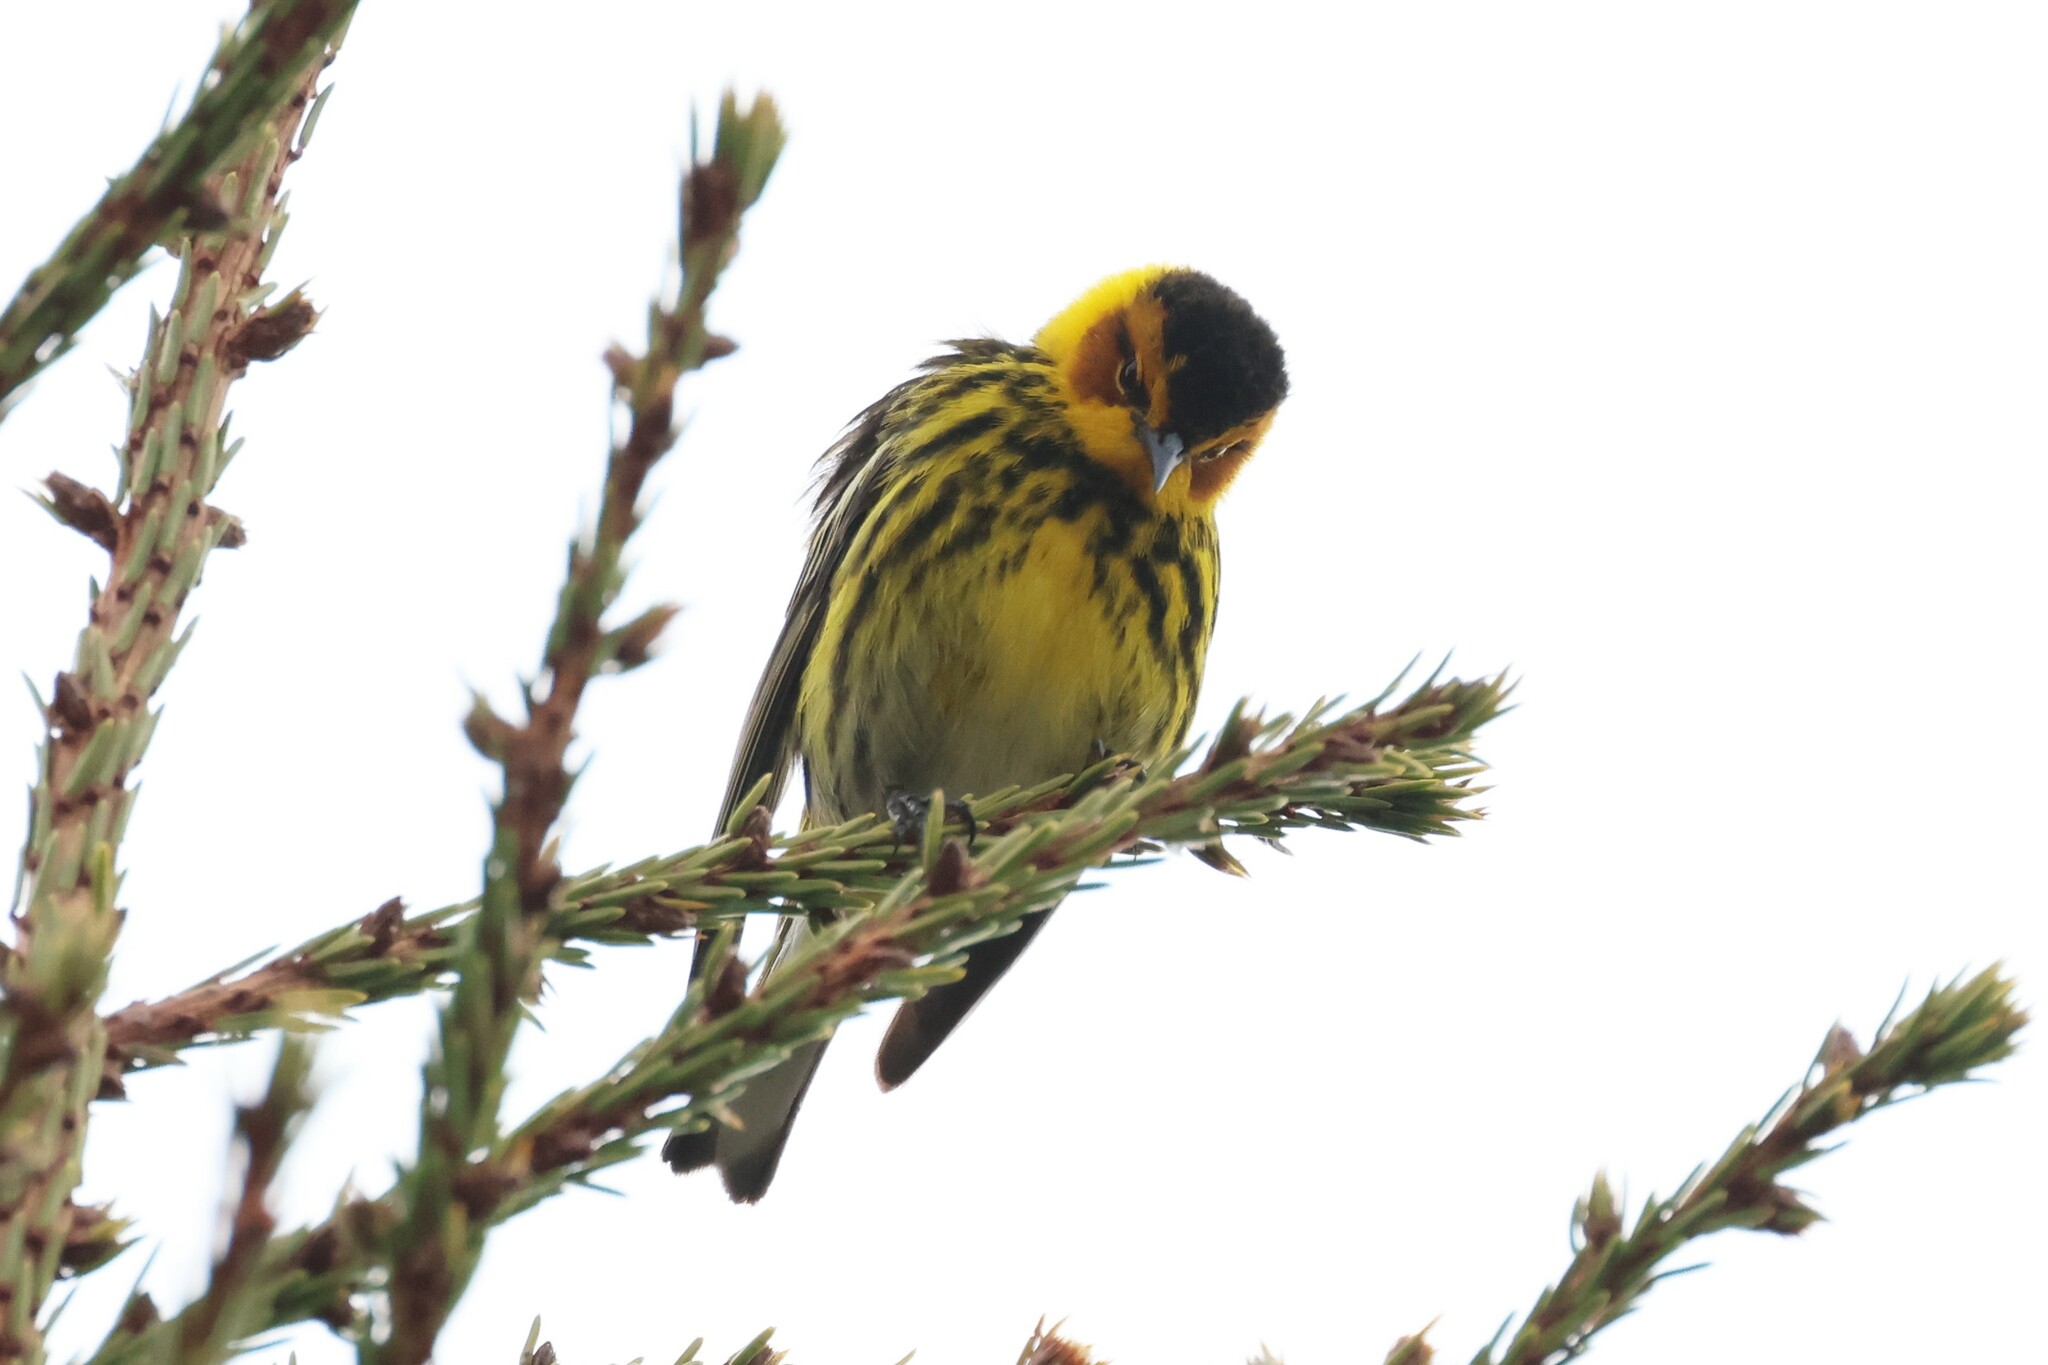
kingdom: Animalia
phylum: Chordata
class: Aves
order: Passeriformes
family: Parulidae
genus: Setophaga
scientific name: Setophaga tigrina
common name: Cape may warbler
